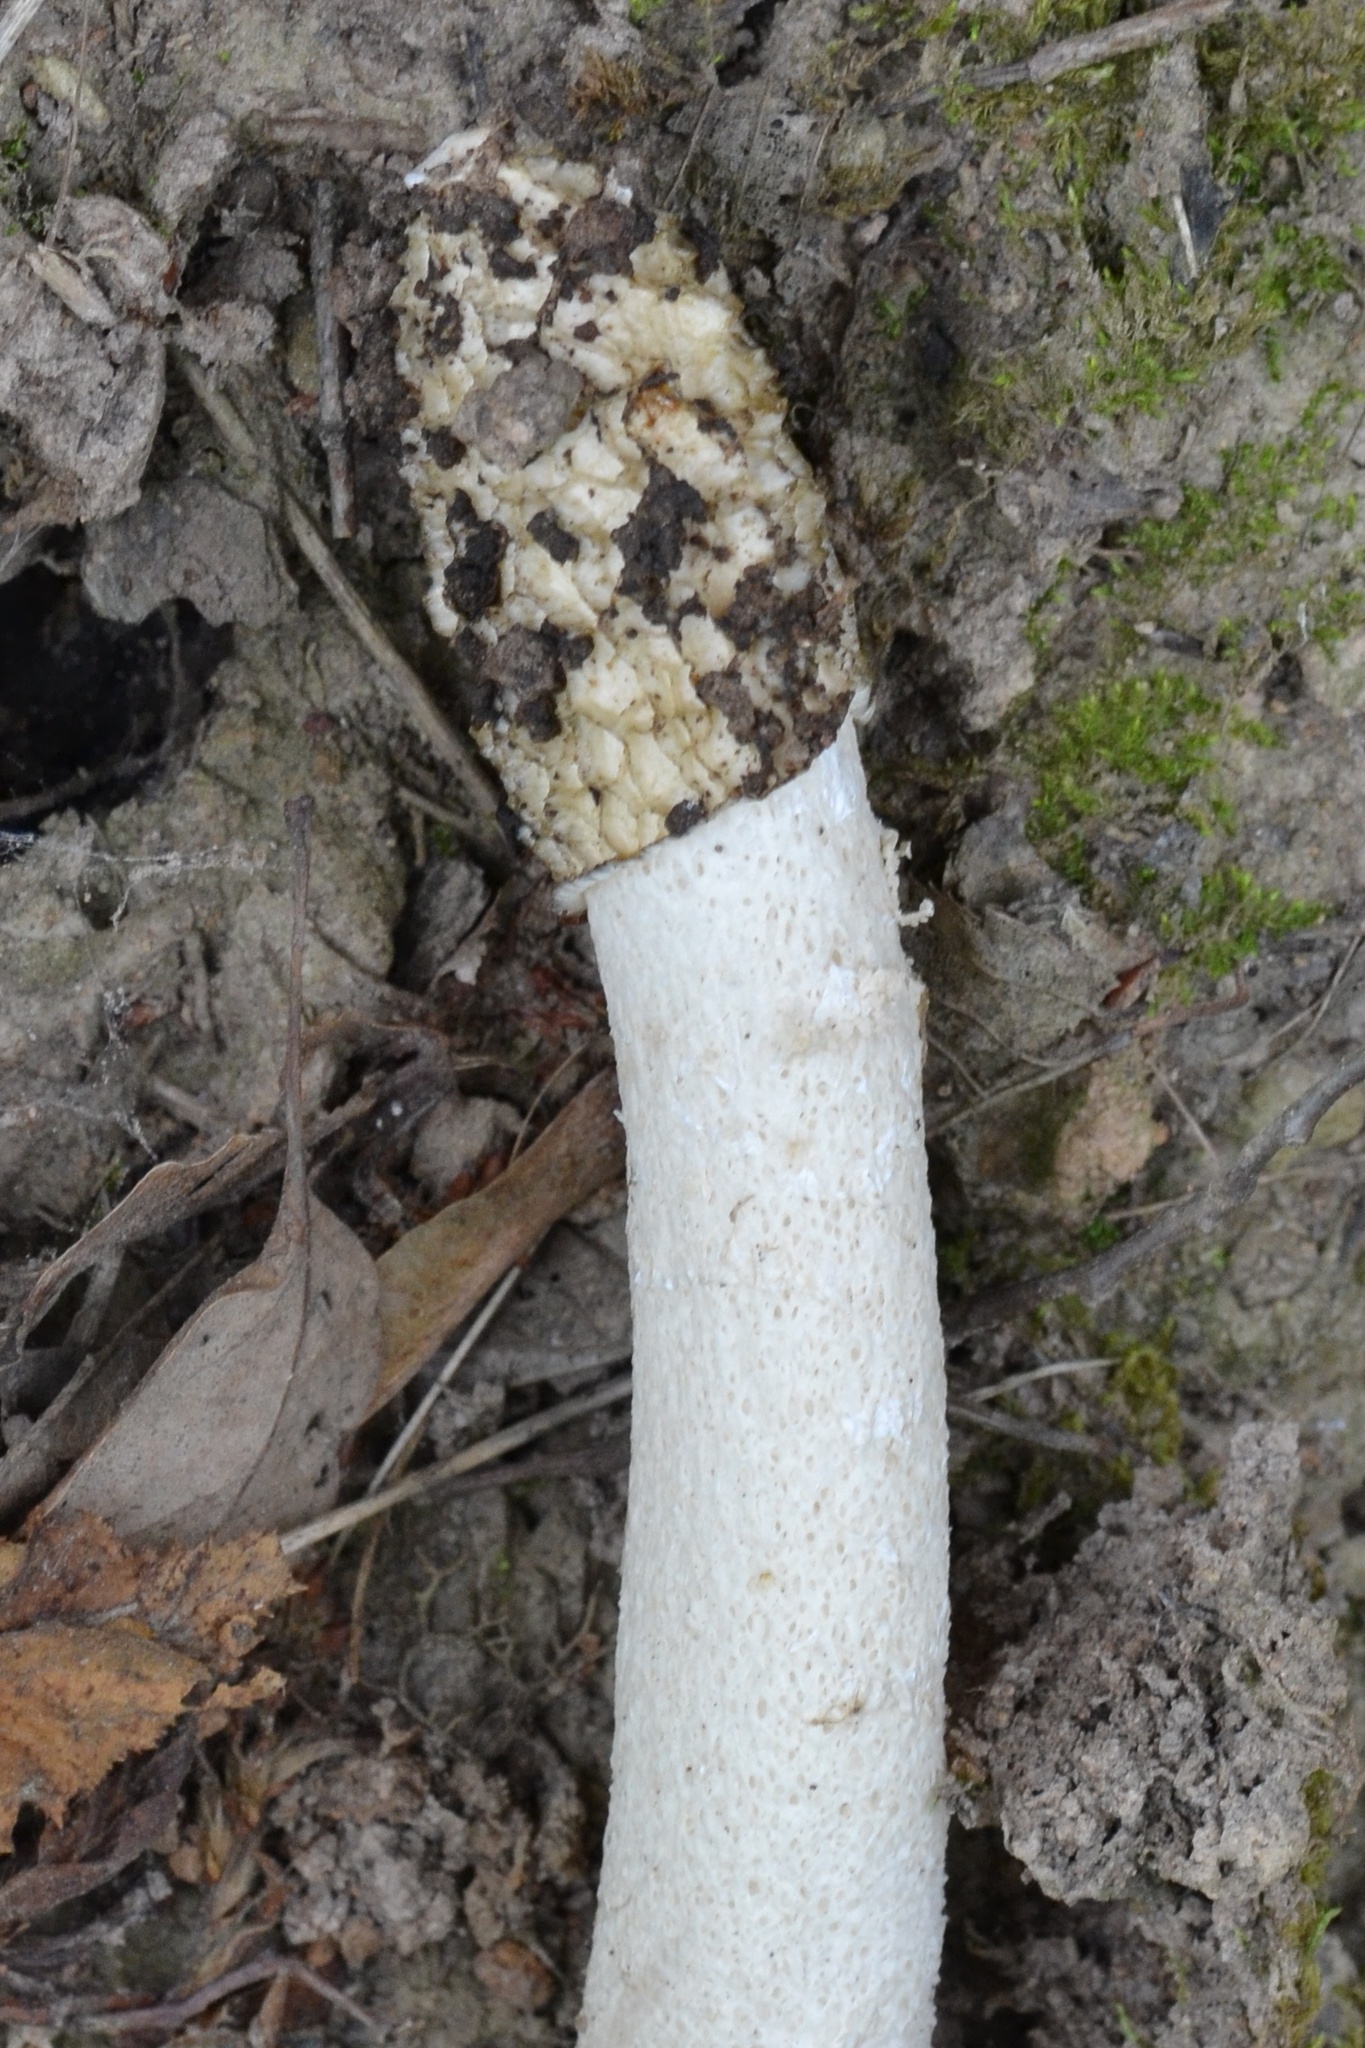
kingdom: Fungi
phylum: Basidiomycota
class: Agaricomycetes
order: Phallales
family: Phallaceae
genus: Phallus
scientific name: Phallus impudicus
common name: Common stinkhorn
